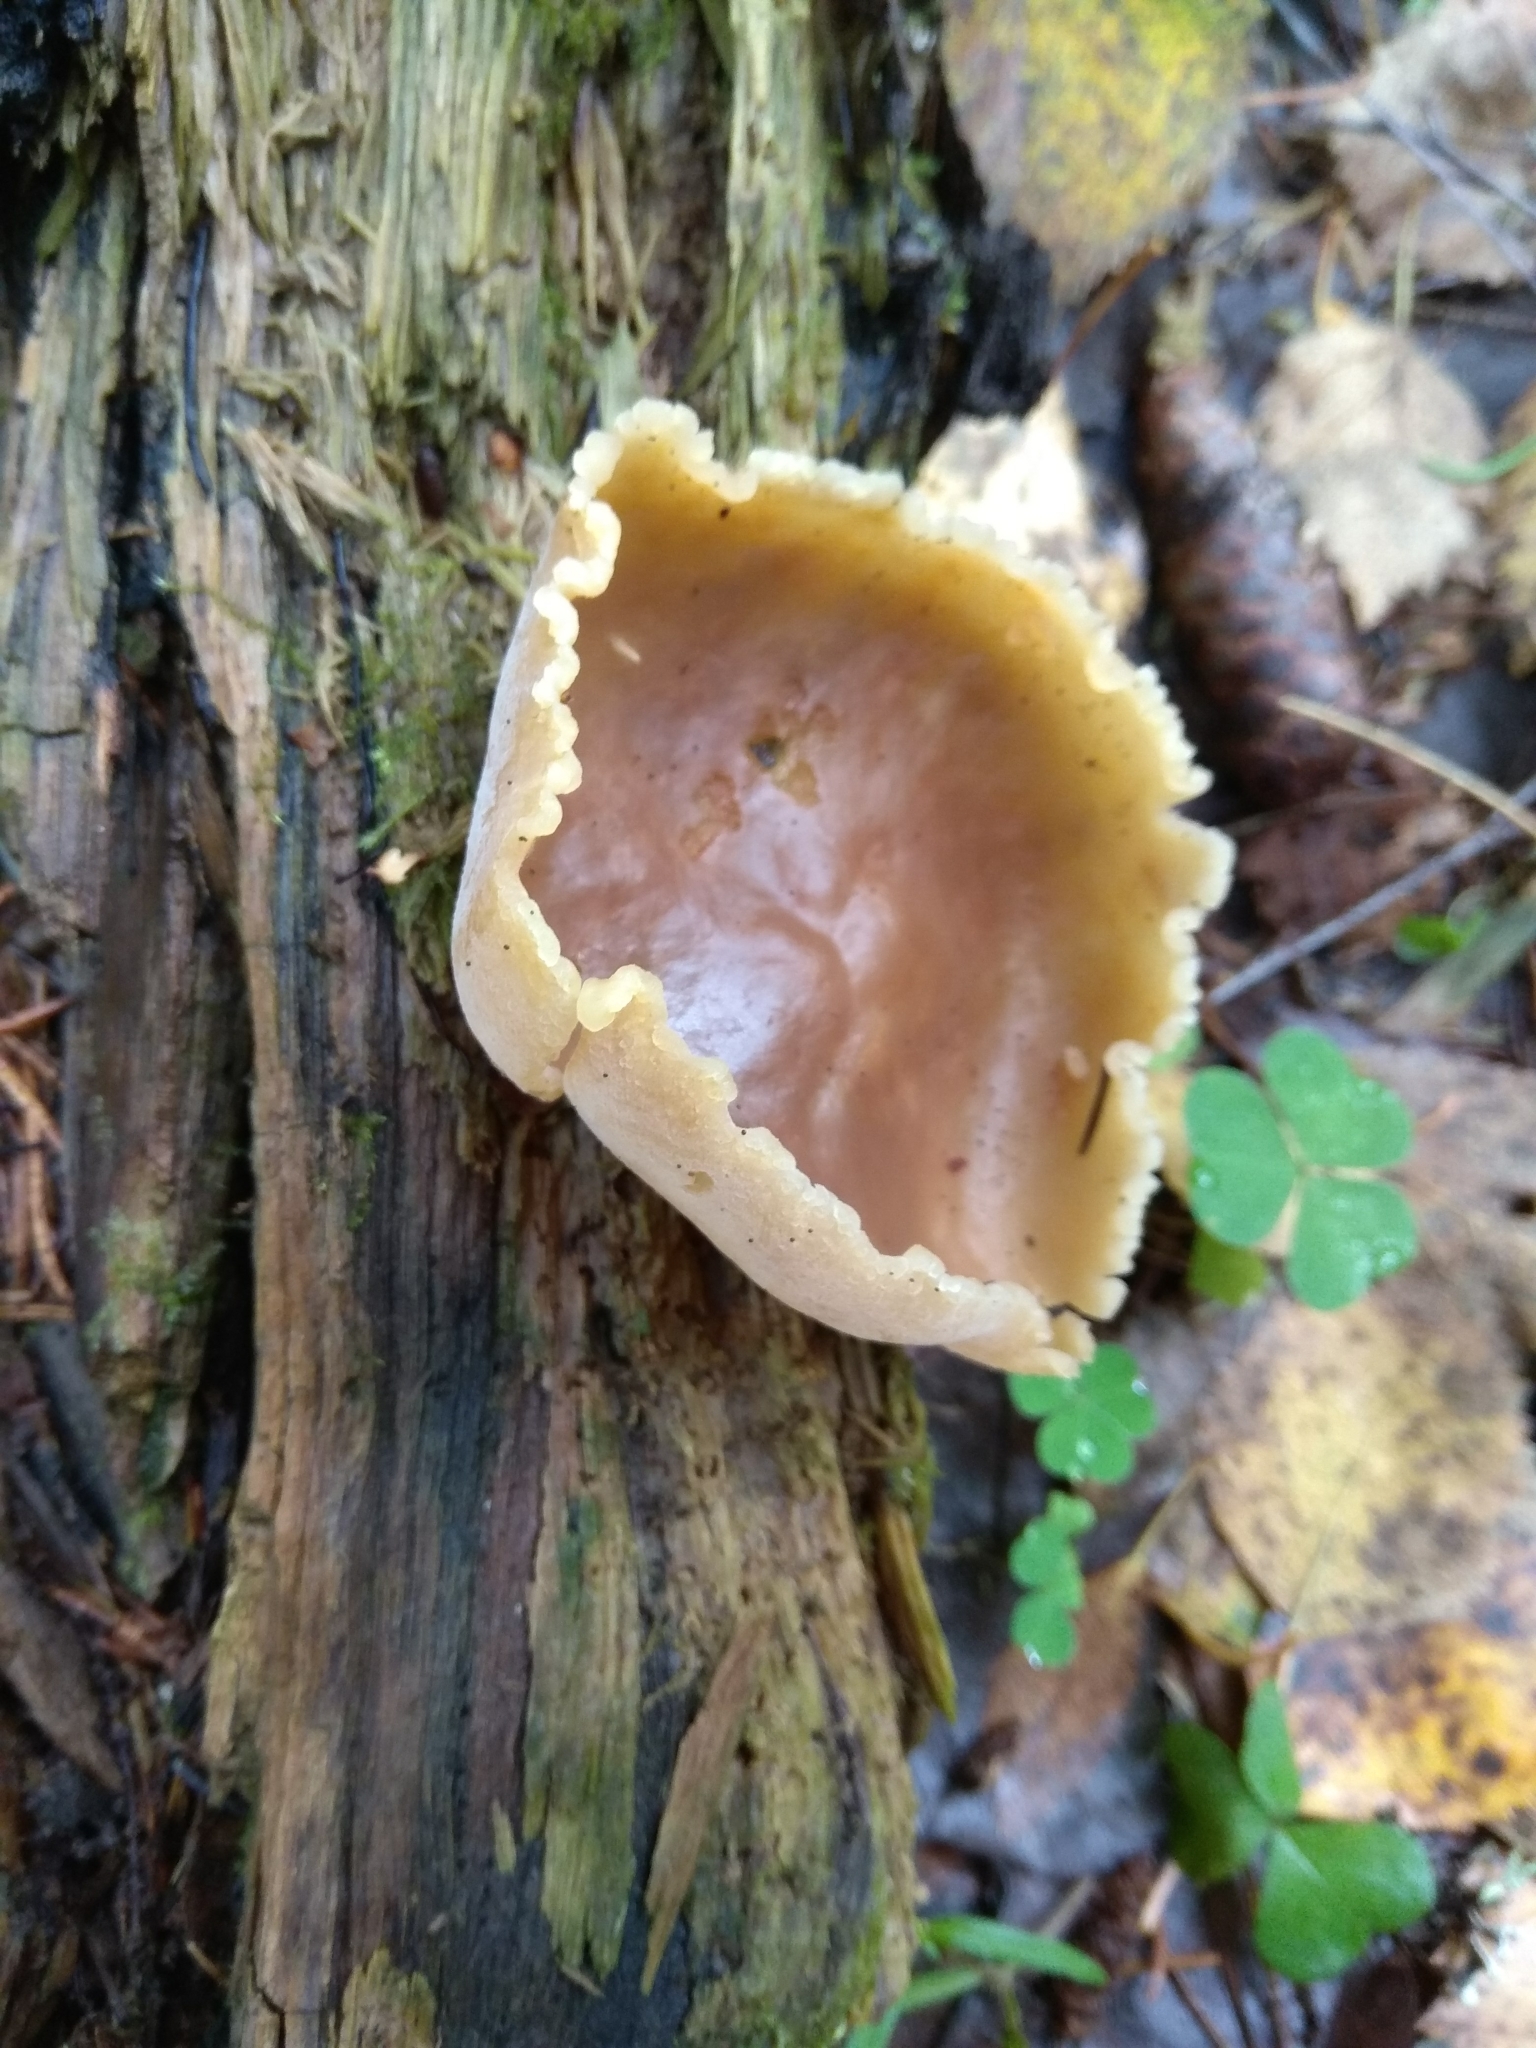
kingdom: Fungi
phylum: Ascomycota
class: Pezizomycetes
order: Pezizales
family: Pezizaceae
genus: Peziza
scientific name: Peziza varia
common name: Layered cup
